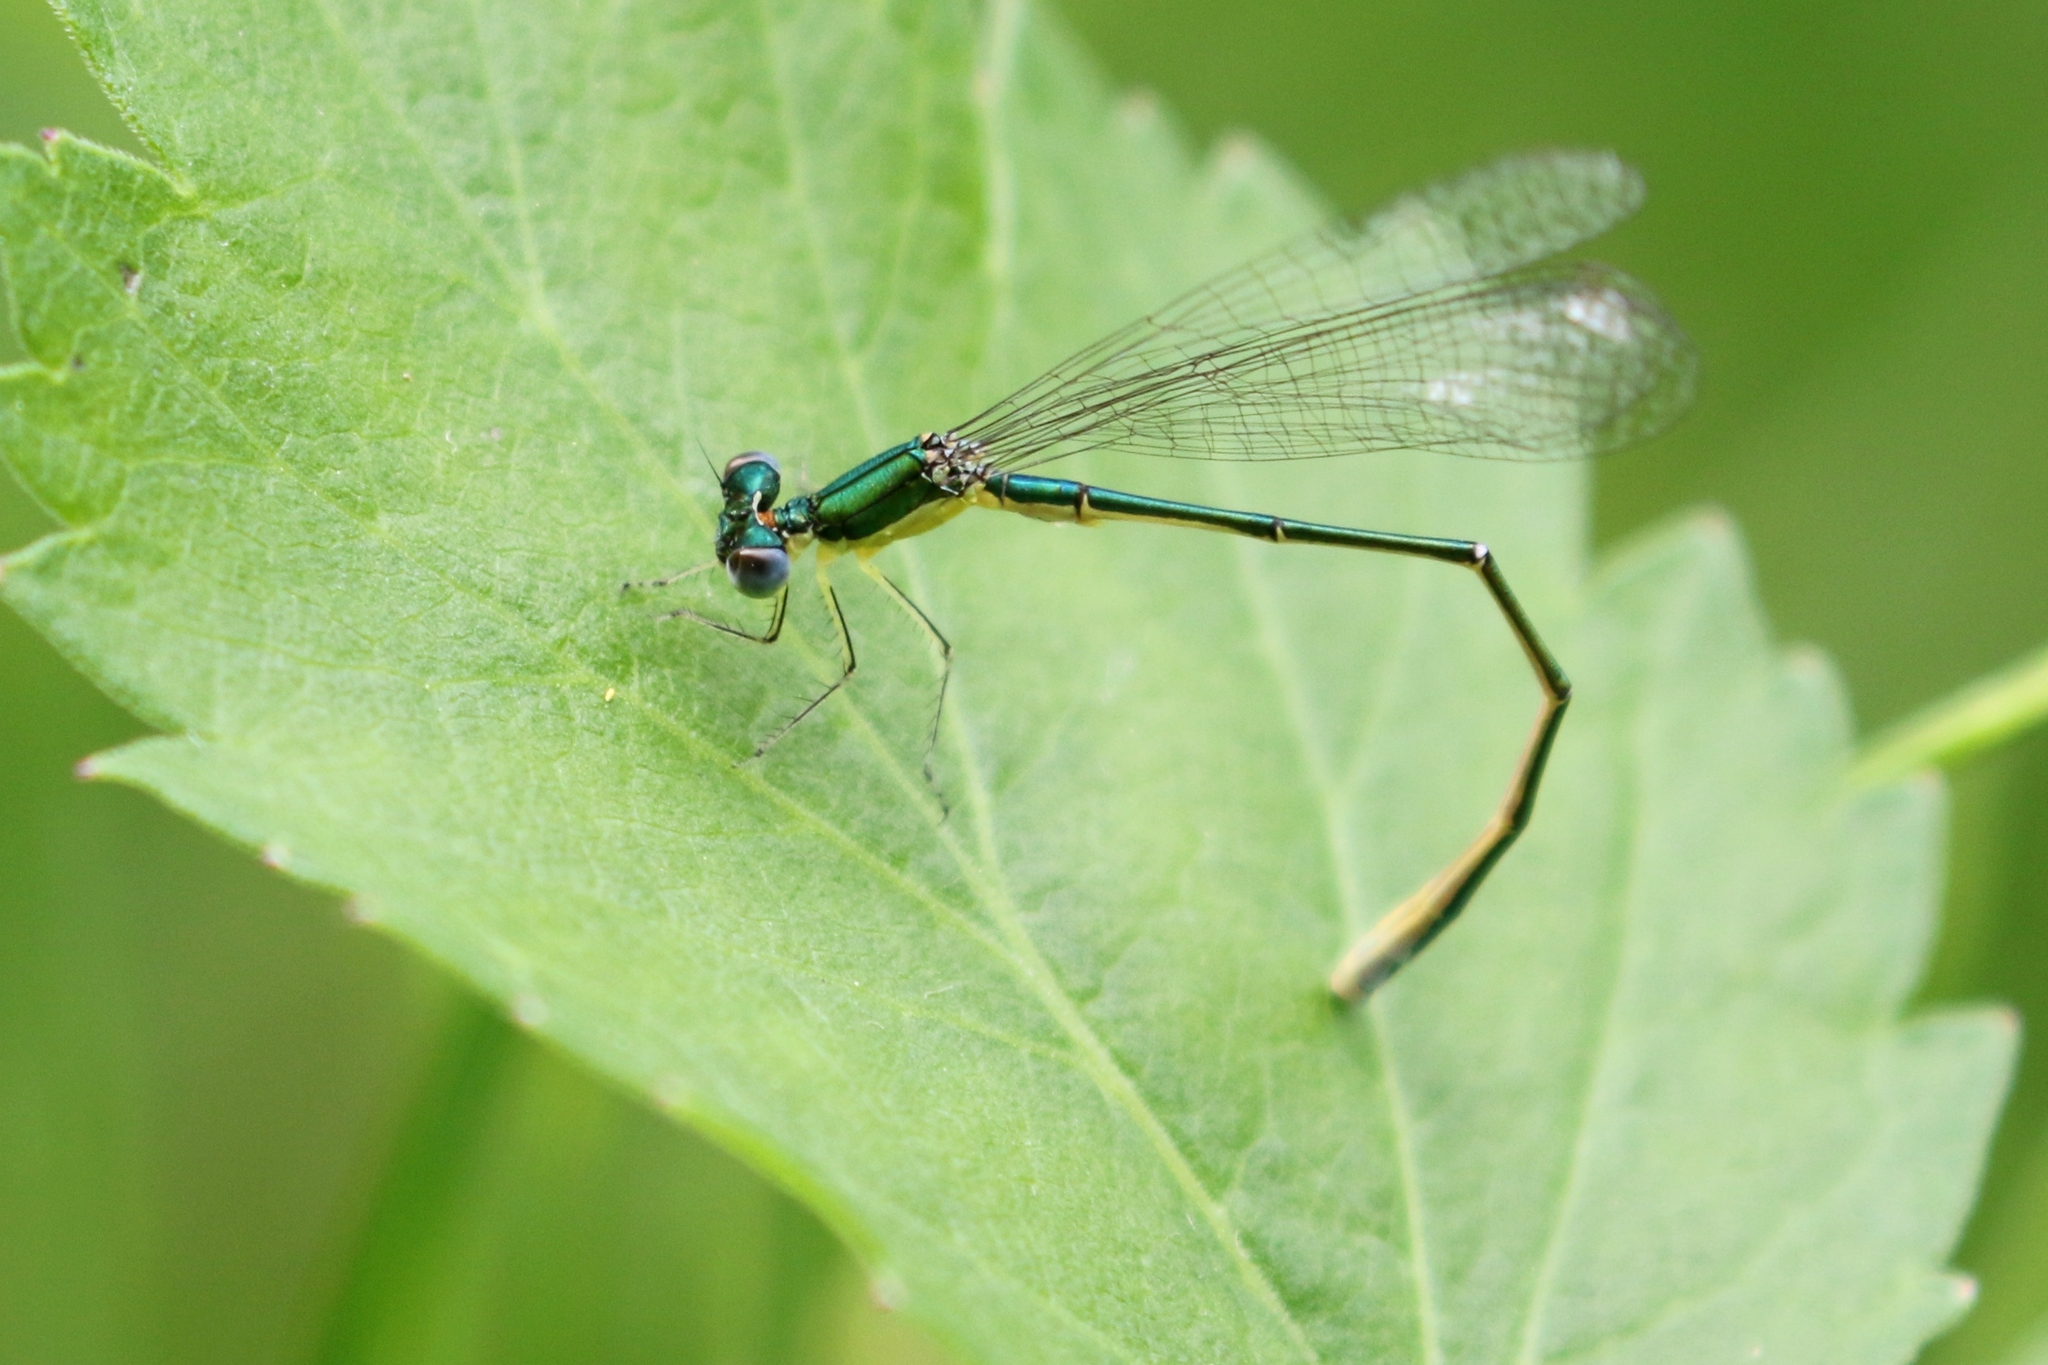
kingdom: Animalia
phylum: Arthropoda
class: Insecta
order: Odonata
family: Coenagrionidae
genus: Nehalennia
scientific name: Nehalennia irene
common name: Sedge sprite
